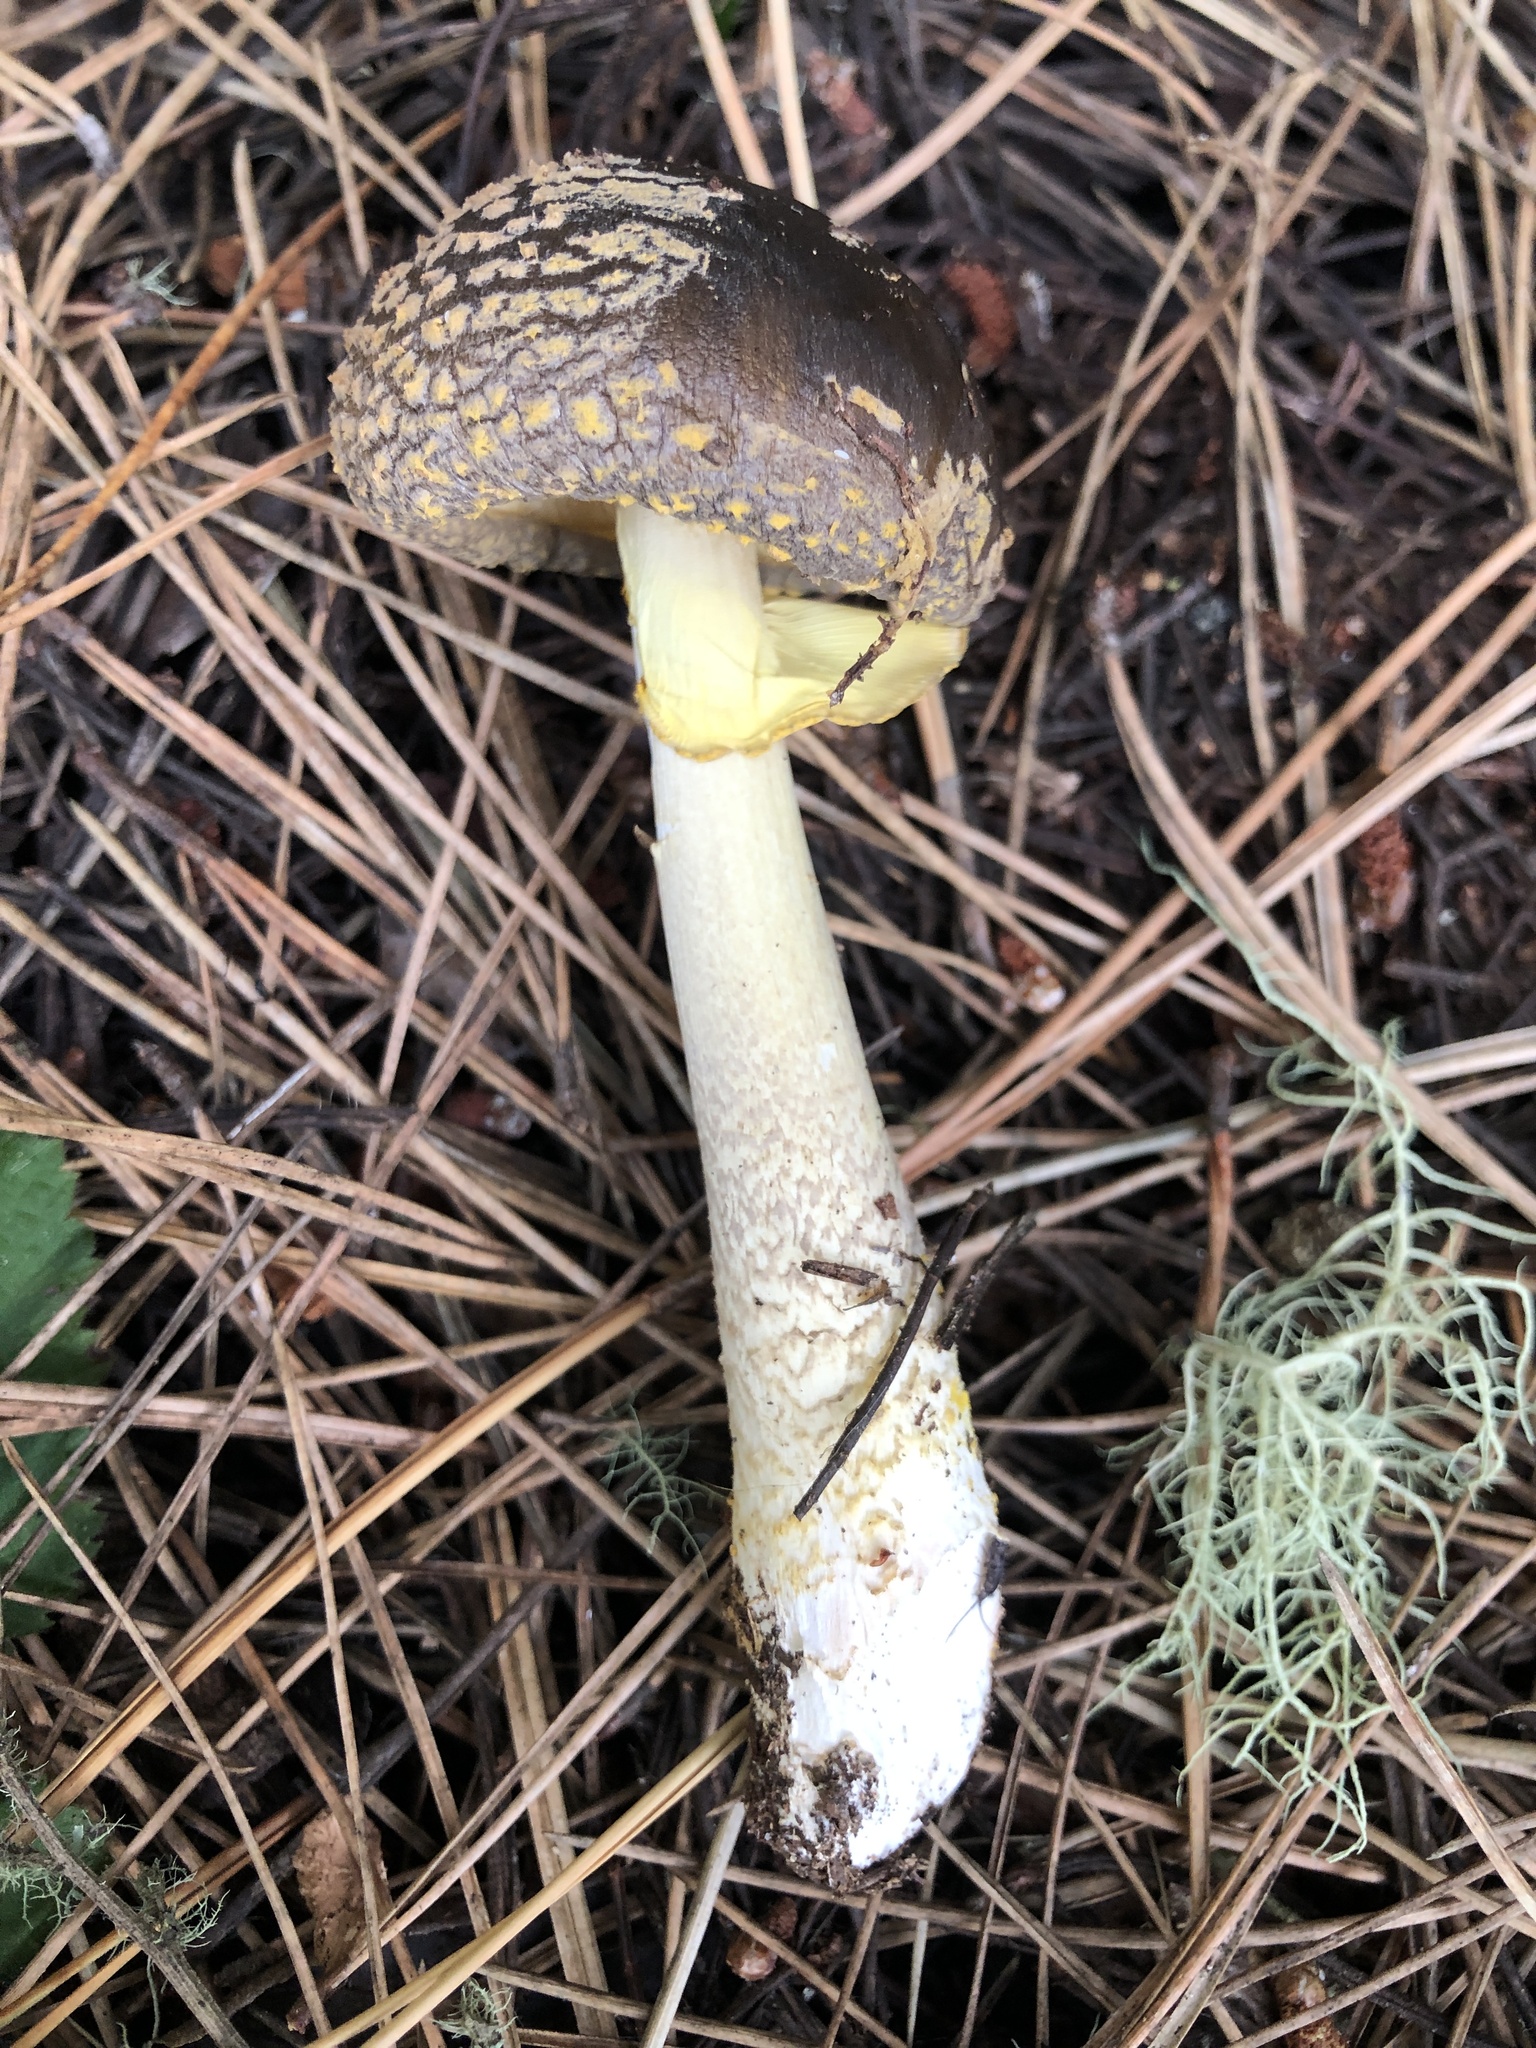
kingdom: Fungi
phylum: Basidiomycota
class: Agaricomycetes
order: Agaricales
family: Amanitaceae
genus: Amanita
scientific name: Amanita augusta
